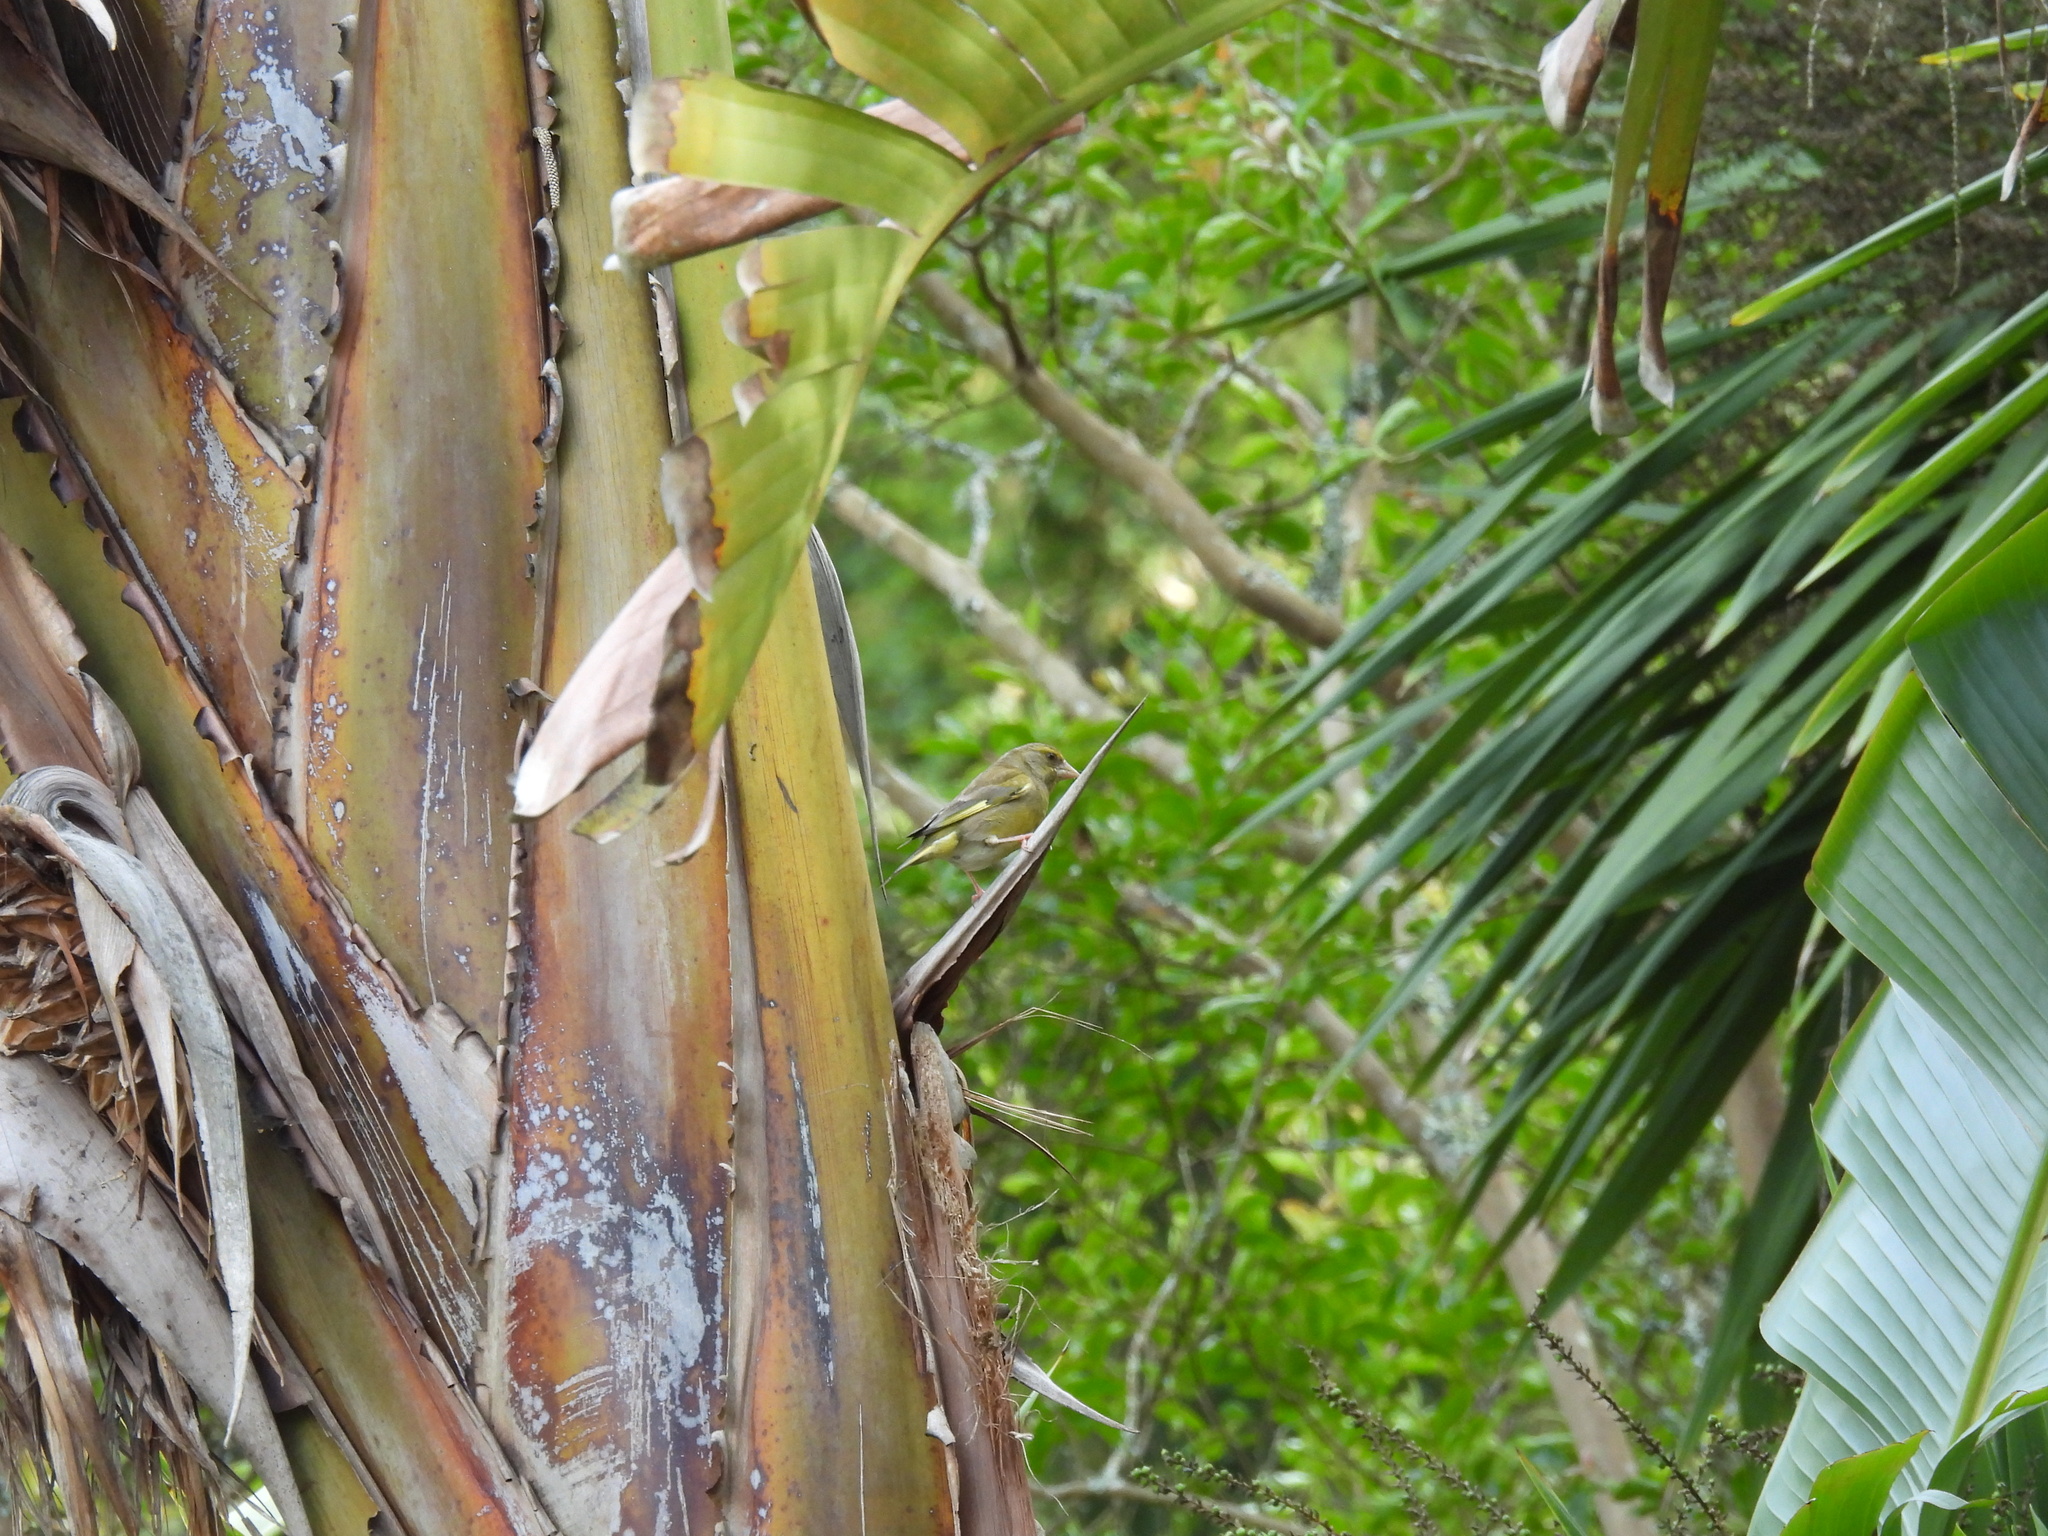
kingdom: Plantae
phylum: Tracheophyta
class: Liliopsida
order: Poales
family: Poaceae
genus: Chloris
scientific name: Chloris chloris
